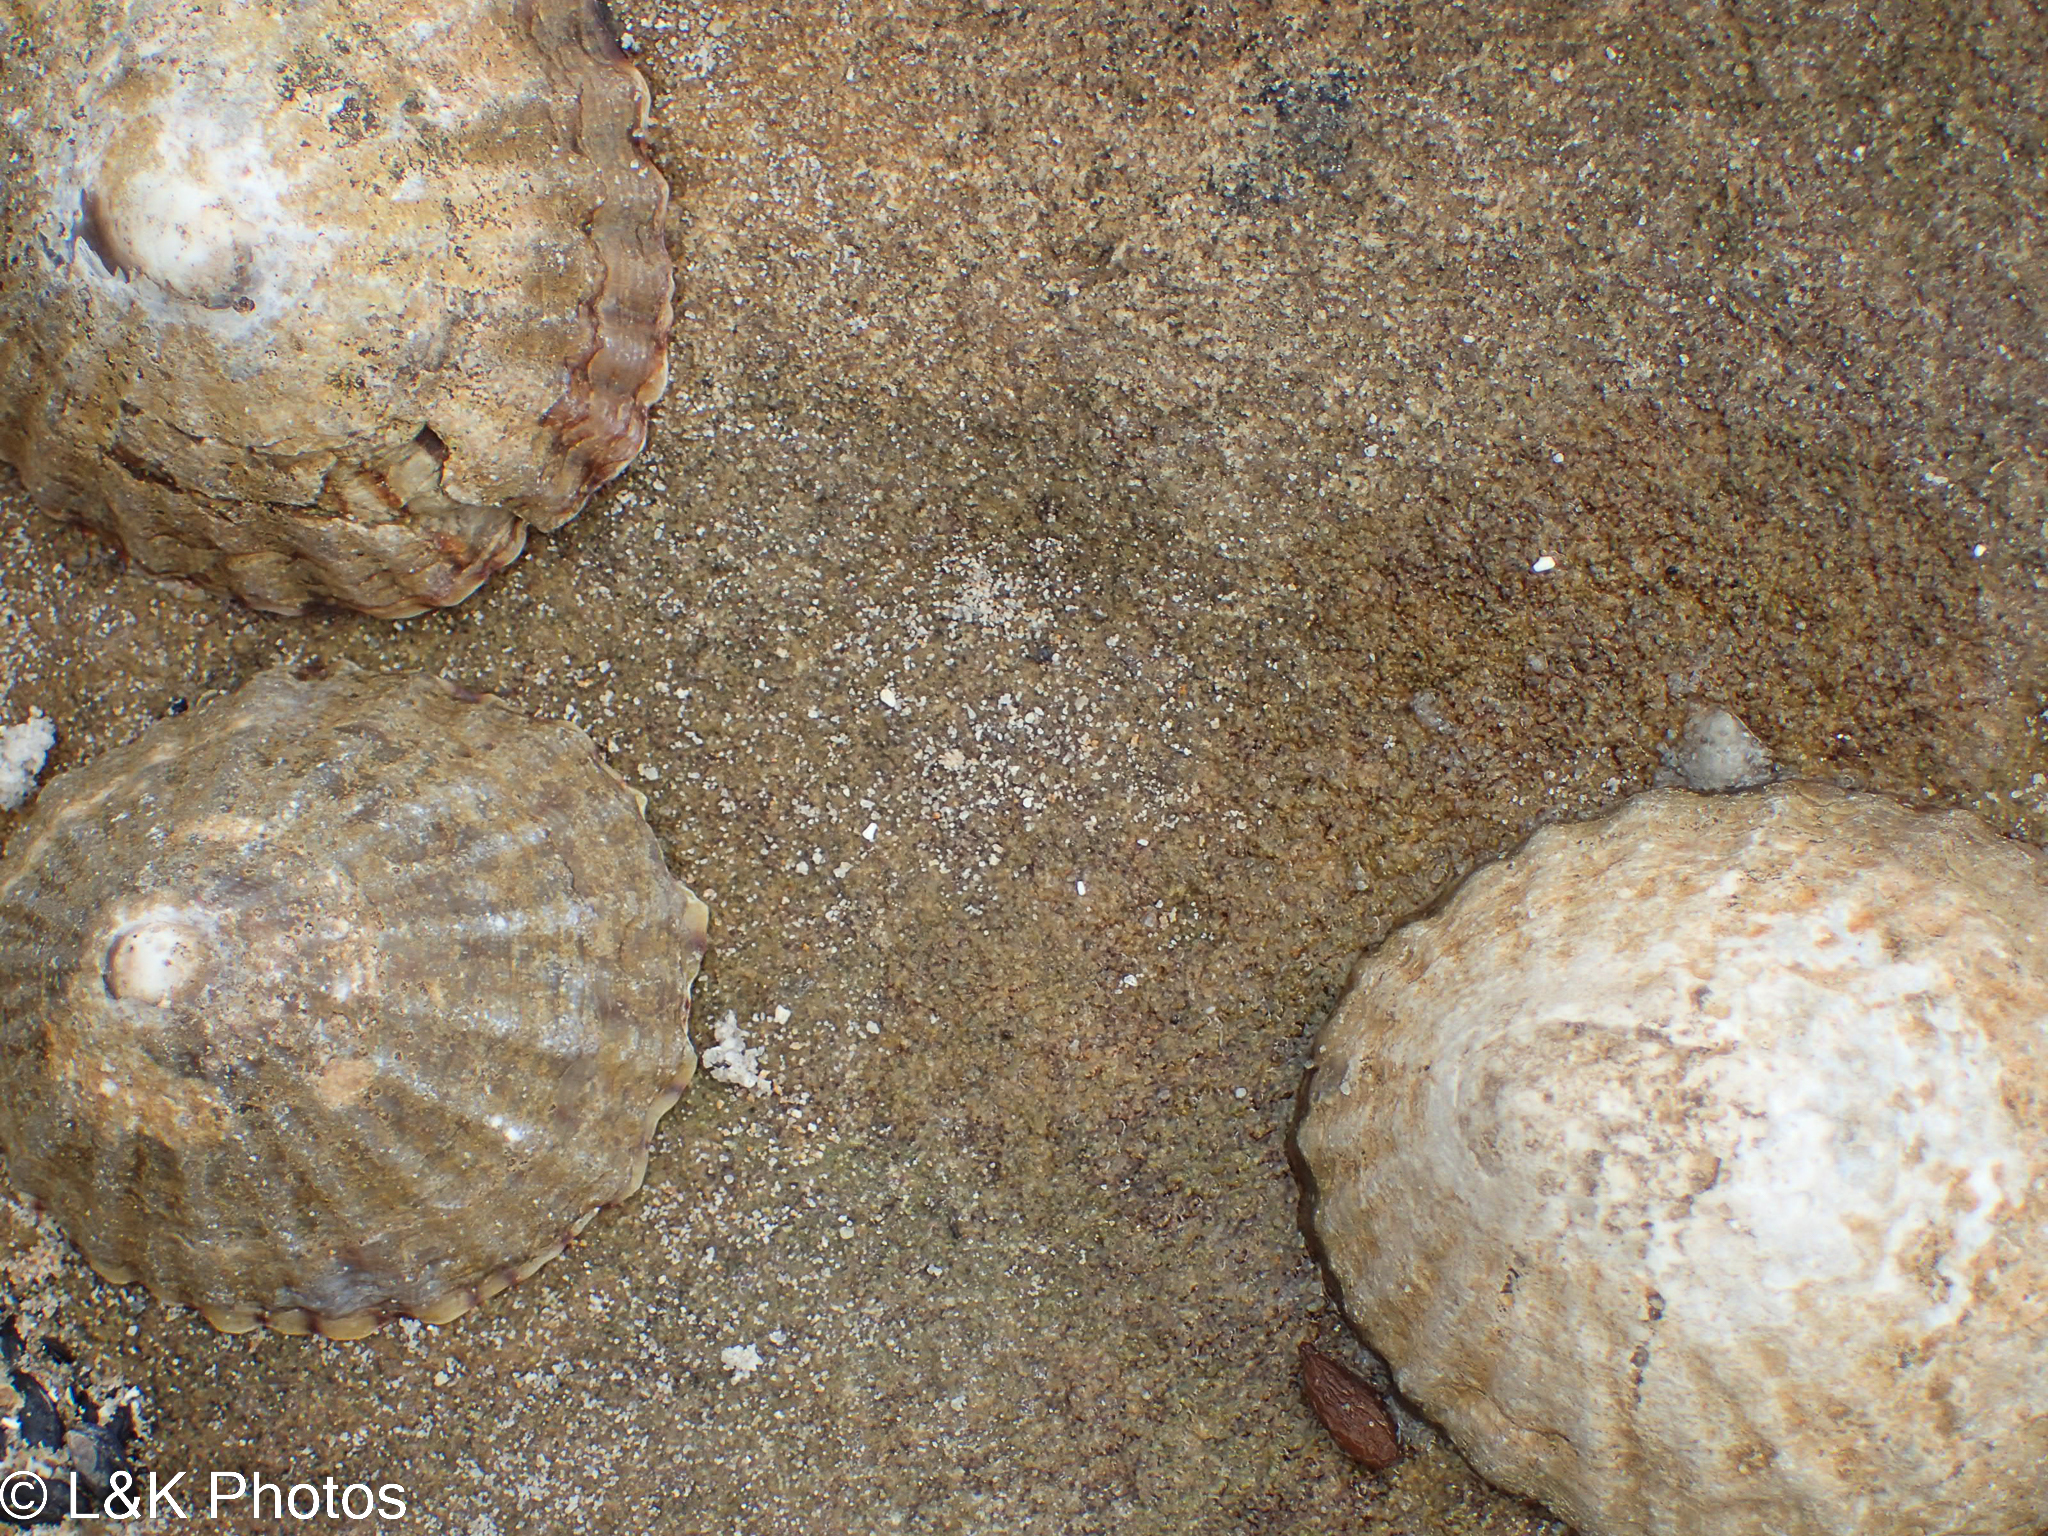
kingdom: Animalia
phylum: Mollusca
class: Gastropoda
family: Nacellidae
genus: Cellana
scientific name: Cellana solida
